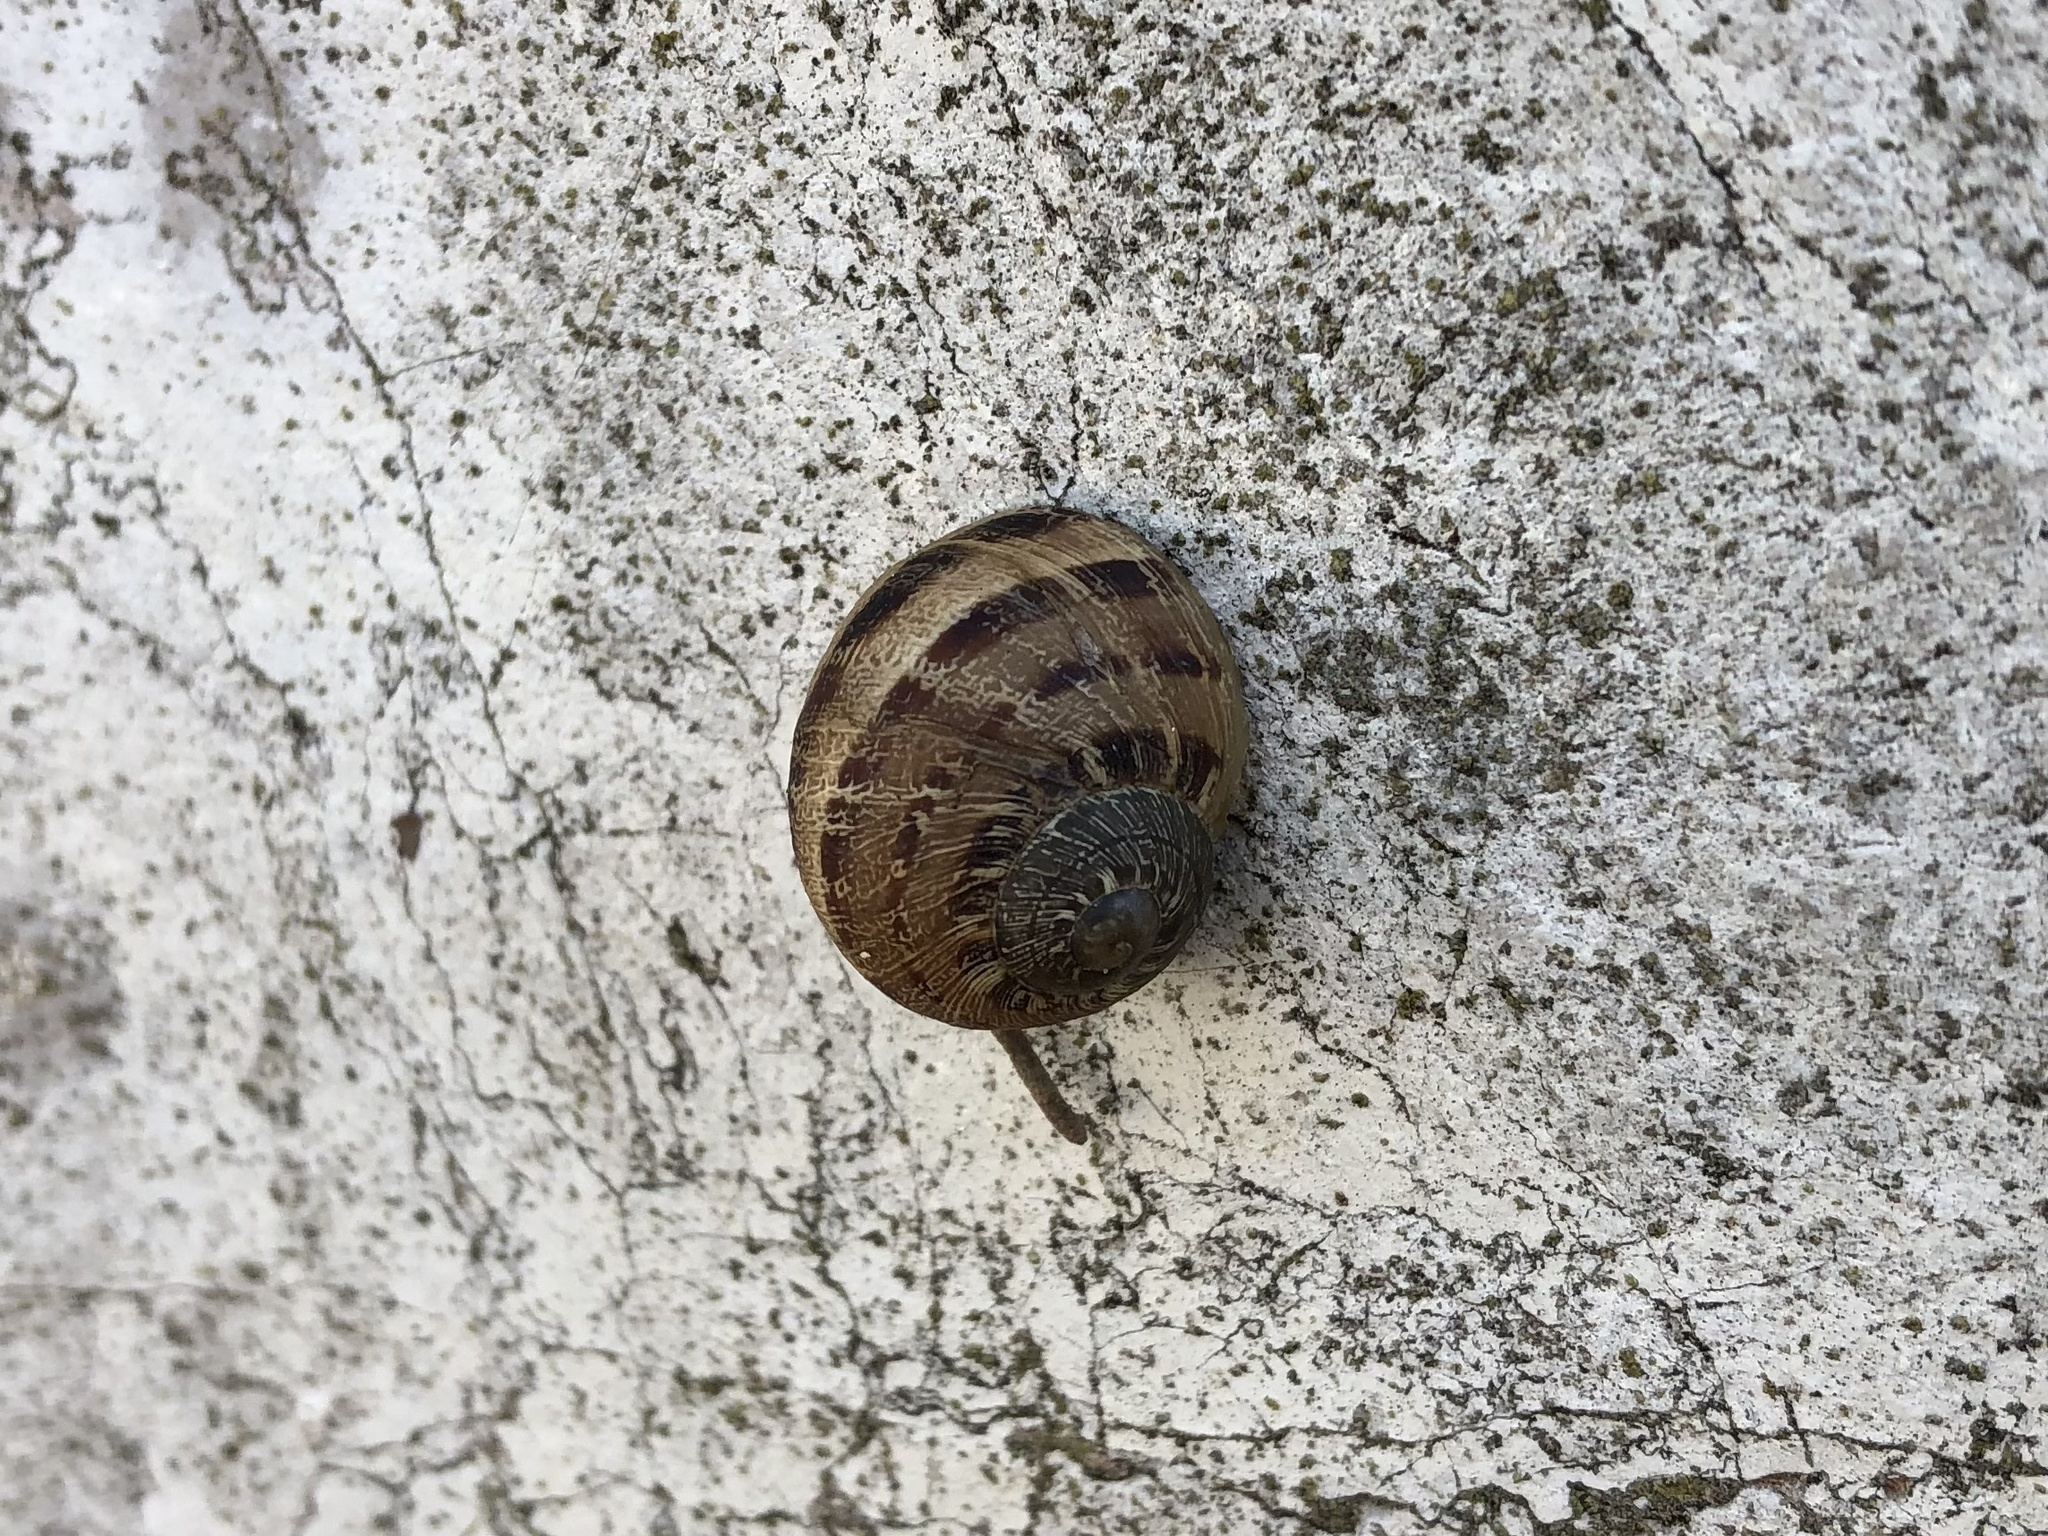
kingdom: Animalia
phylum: Mollusca
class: Gastropoda
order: Stylommatophora
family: Helicidae
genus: Cornu
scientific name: Cornu aspersum
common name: Brown garden snail
